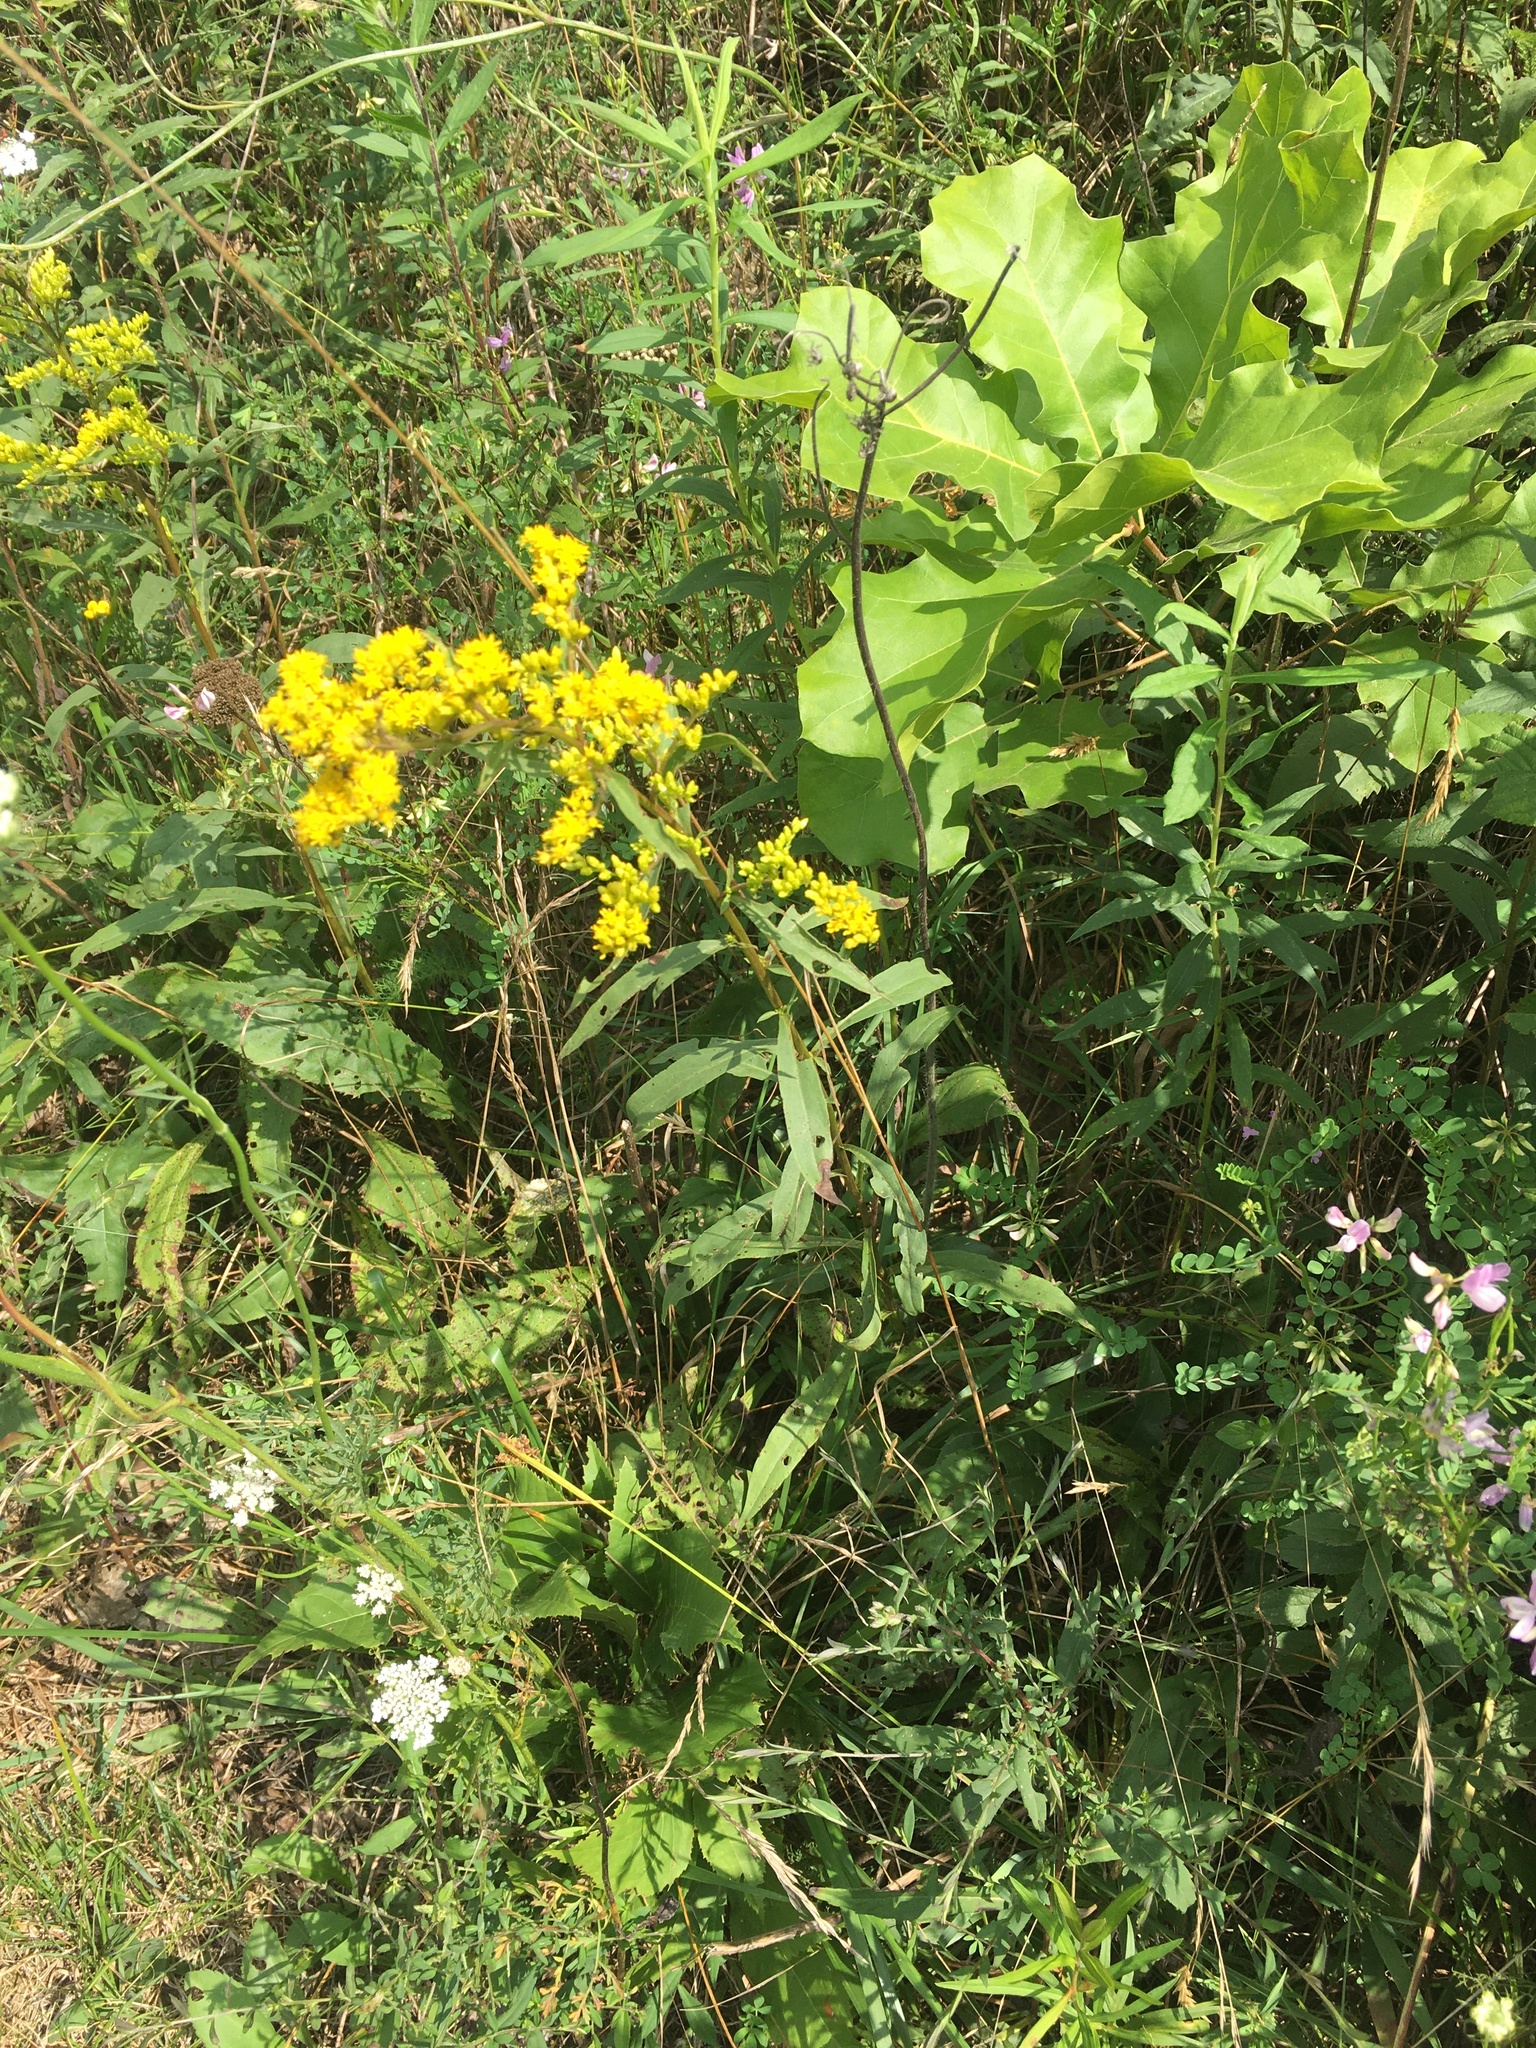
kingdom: Plantae
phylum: Tracheophyta
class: Magnoliopsida
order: Asterales
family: Asteraceae
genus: Solidago
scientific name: Solidago juncea
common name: Early goldenrod
